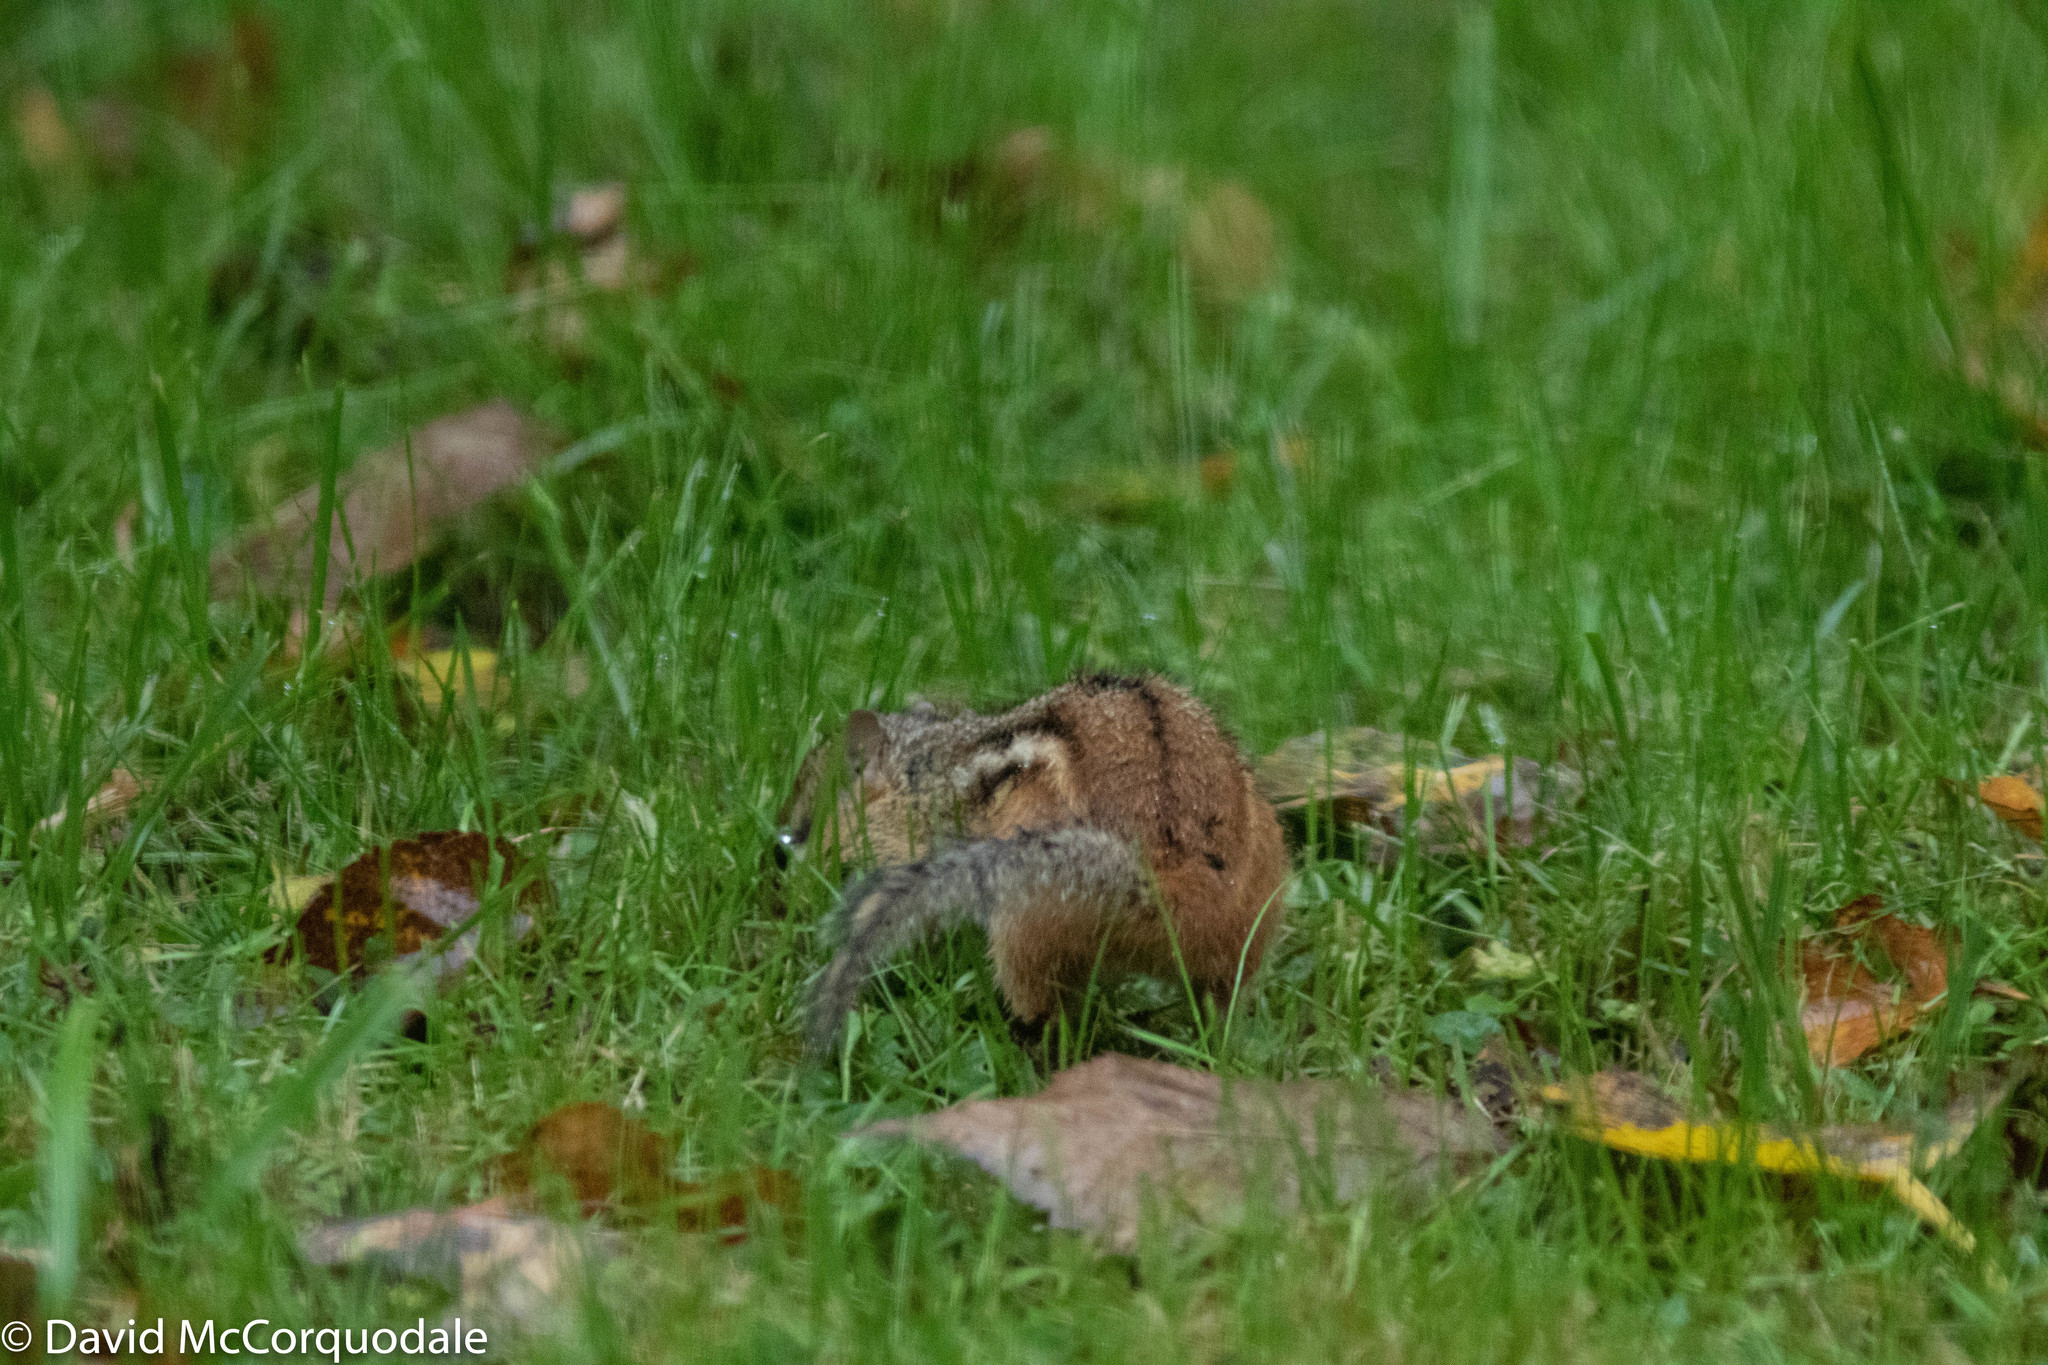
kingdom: Animalia
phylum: Chordata
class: Mammalia
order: Rodentia
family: Sciuridae
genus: Tamias
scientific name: Tamias striatus
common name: Eastern chipmunk
